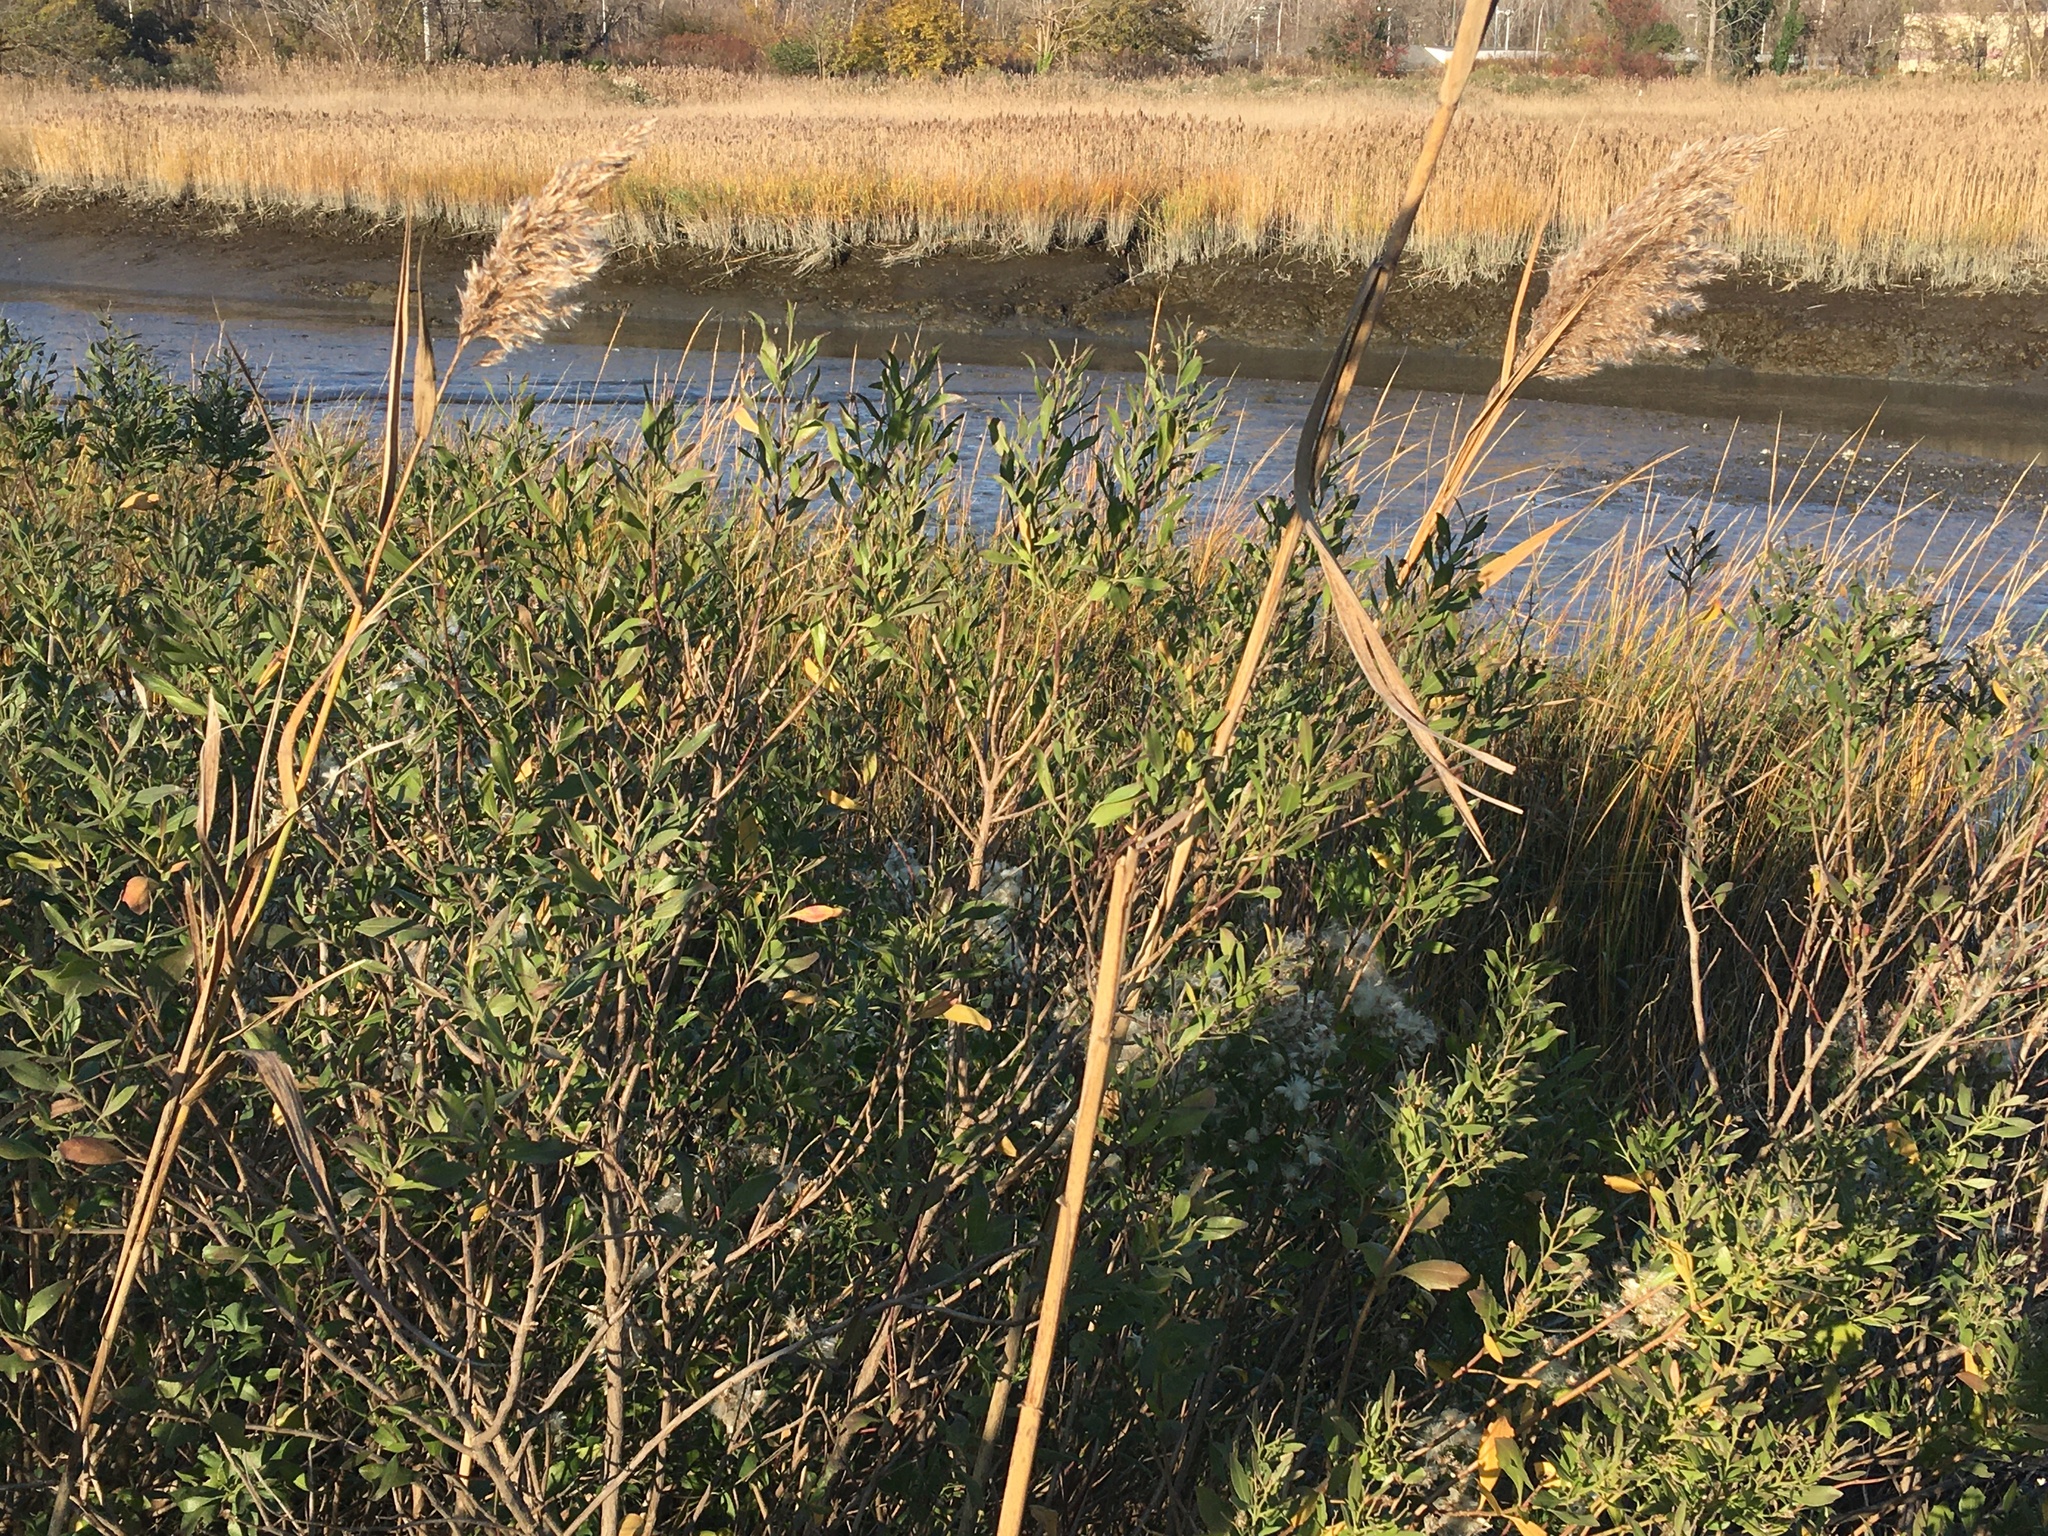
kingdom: Plantae
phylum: Tracheophyta
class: Magnoliopsida
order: Asterales
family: Asteraceae
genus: Baccharis
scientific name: Baccharis halimifolia
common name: Eastern baccharis
